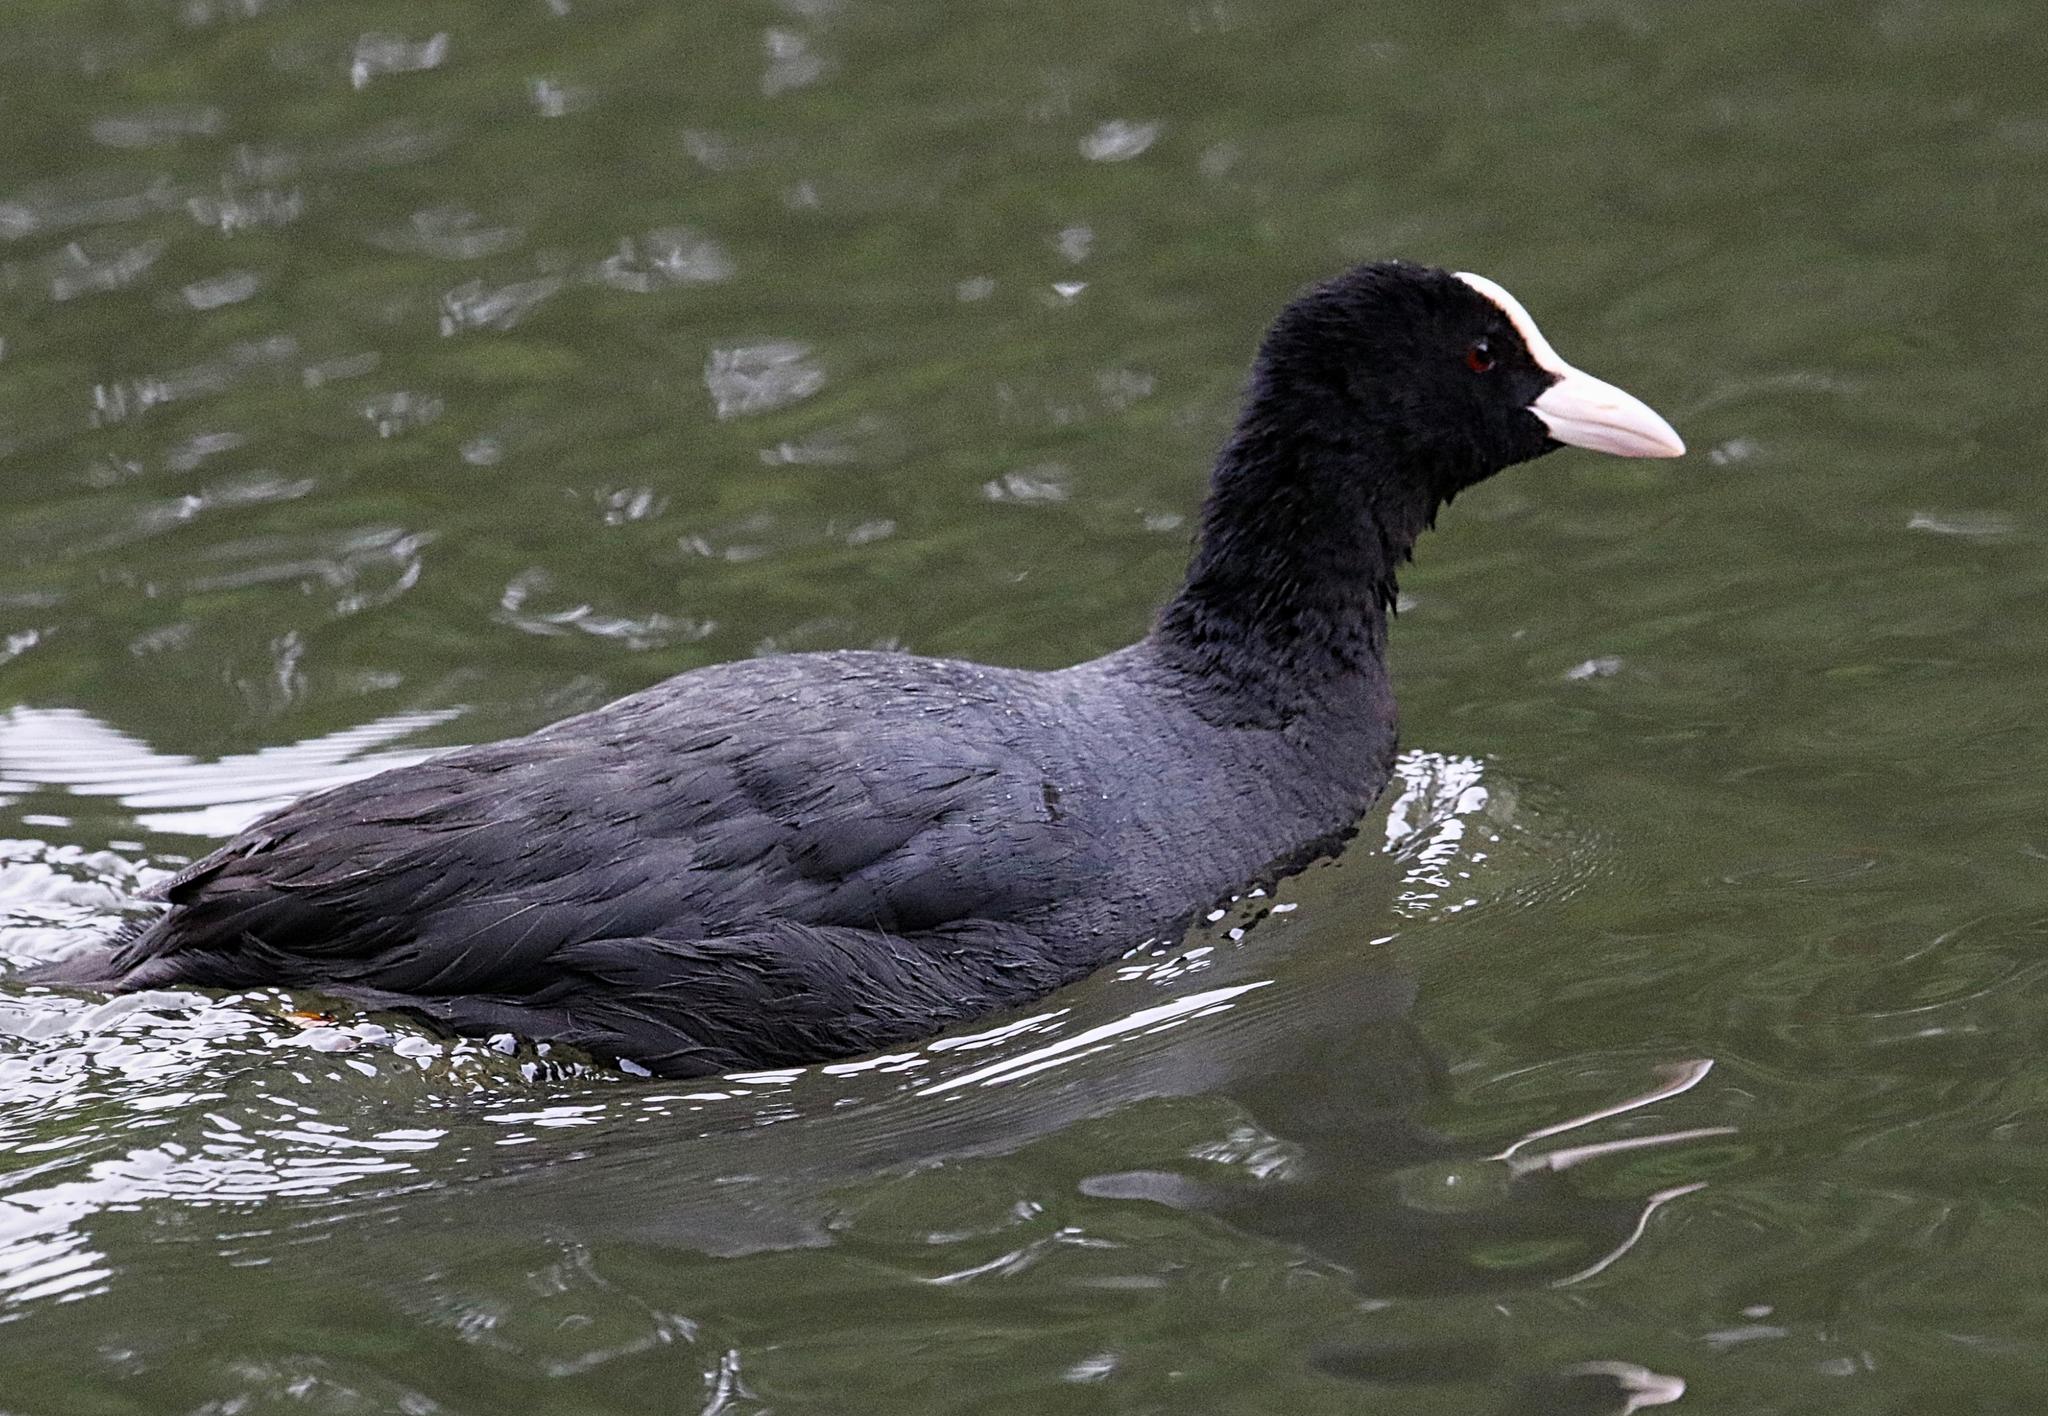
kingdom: Animalia
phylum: Chordata
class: Aves
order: Gruiformes
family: Rallidae
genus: Fulica
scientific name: Fulica atra
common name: Eurasian coot
